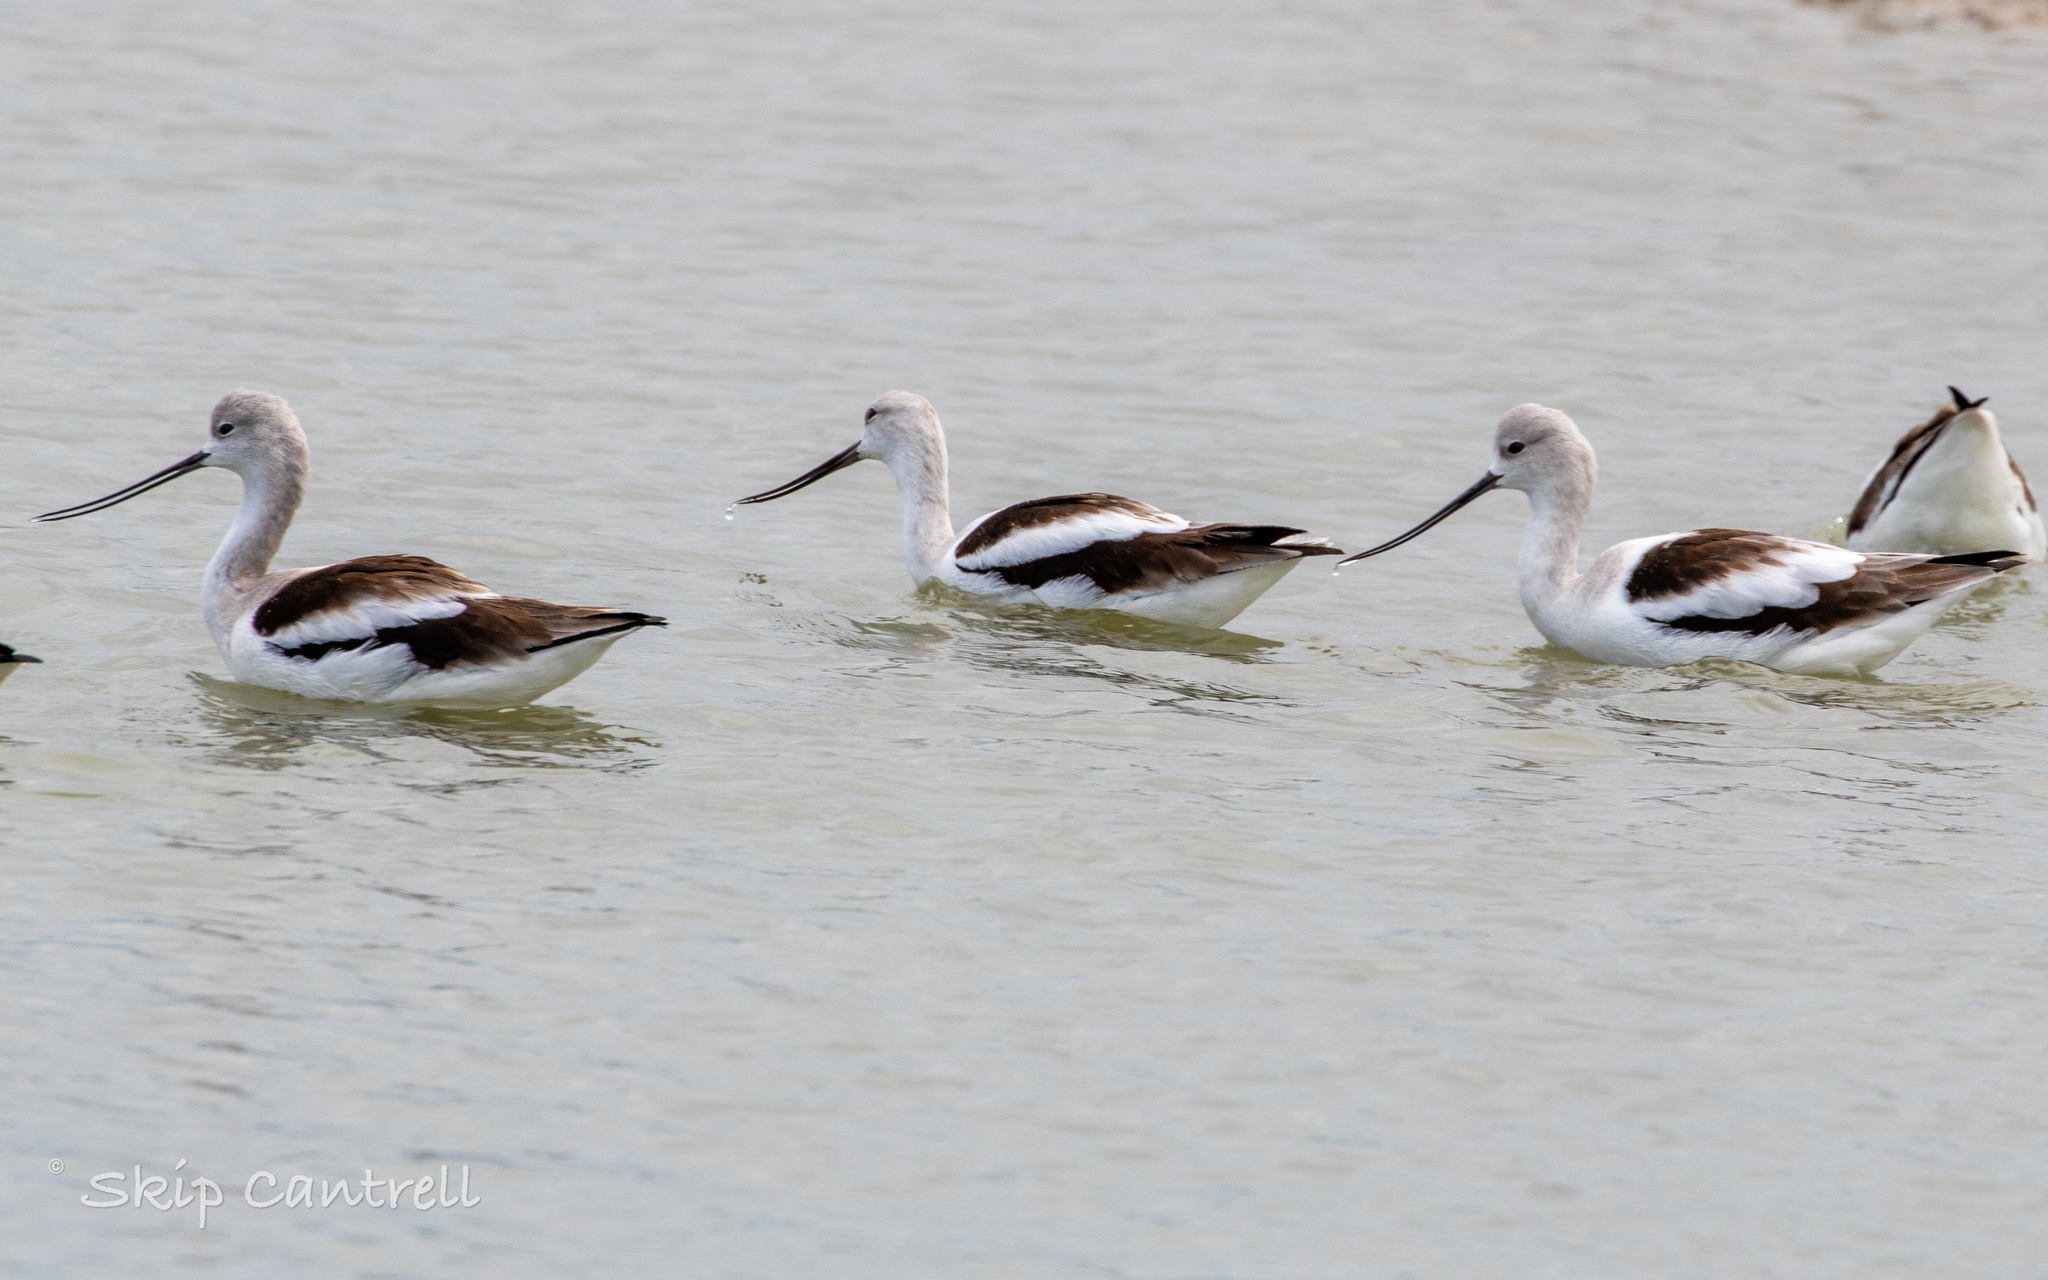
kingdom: Animalia
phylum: Chordata
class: Aves
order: Charadriiformes
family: Recurvirostridae
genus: Recurvirostra
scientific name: Recurvirostra americana
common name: American avocet
